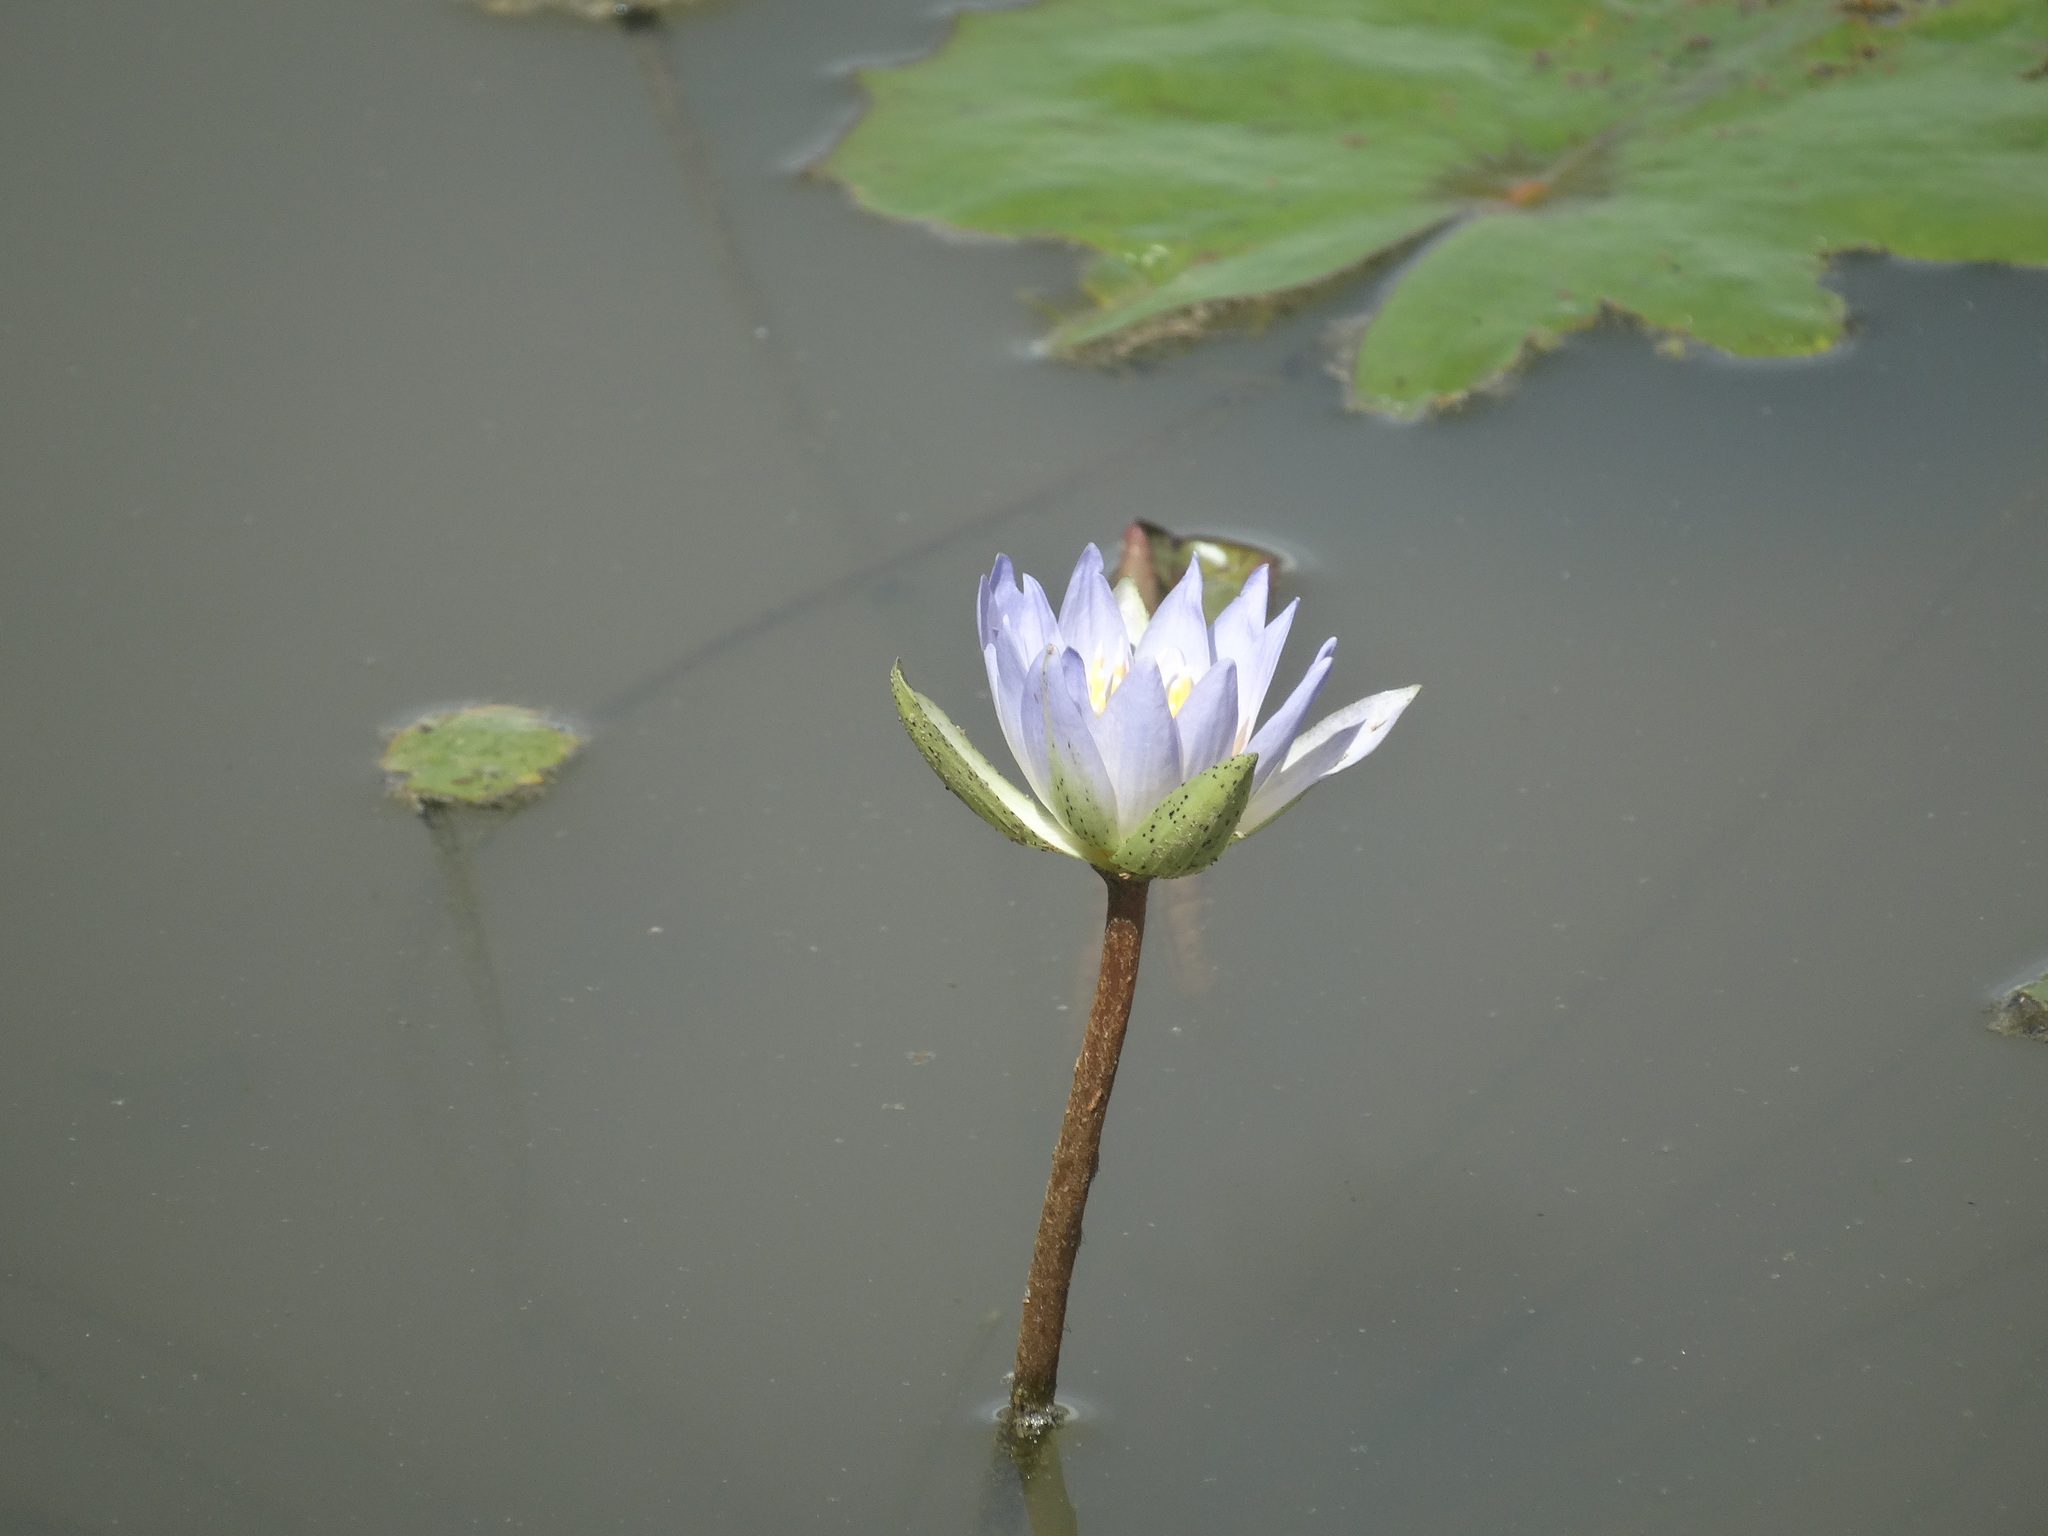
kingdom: Plantae
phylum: Tracheophyta
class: Magnoliopsida
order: Nymphaeales
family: Nymphaeaceae
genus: Nymphaea
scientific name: Nymphaea elegans
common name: Blue water-lily
